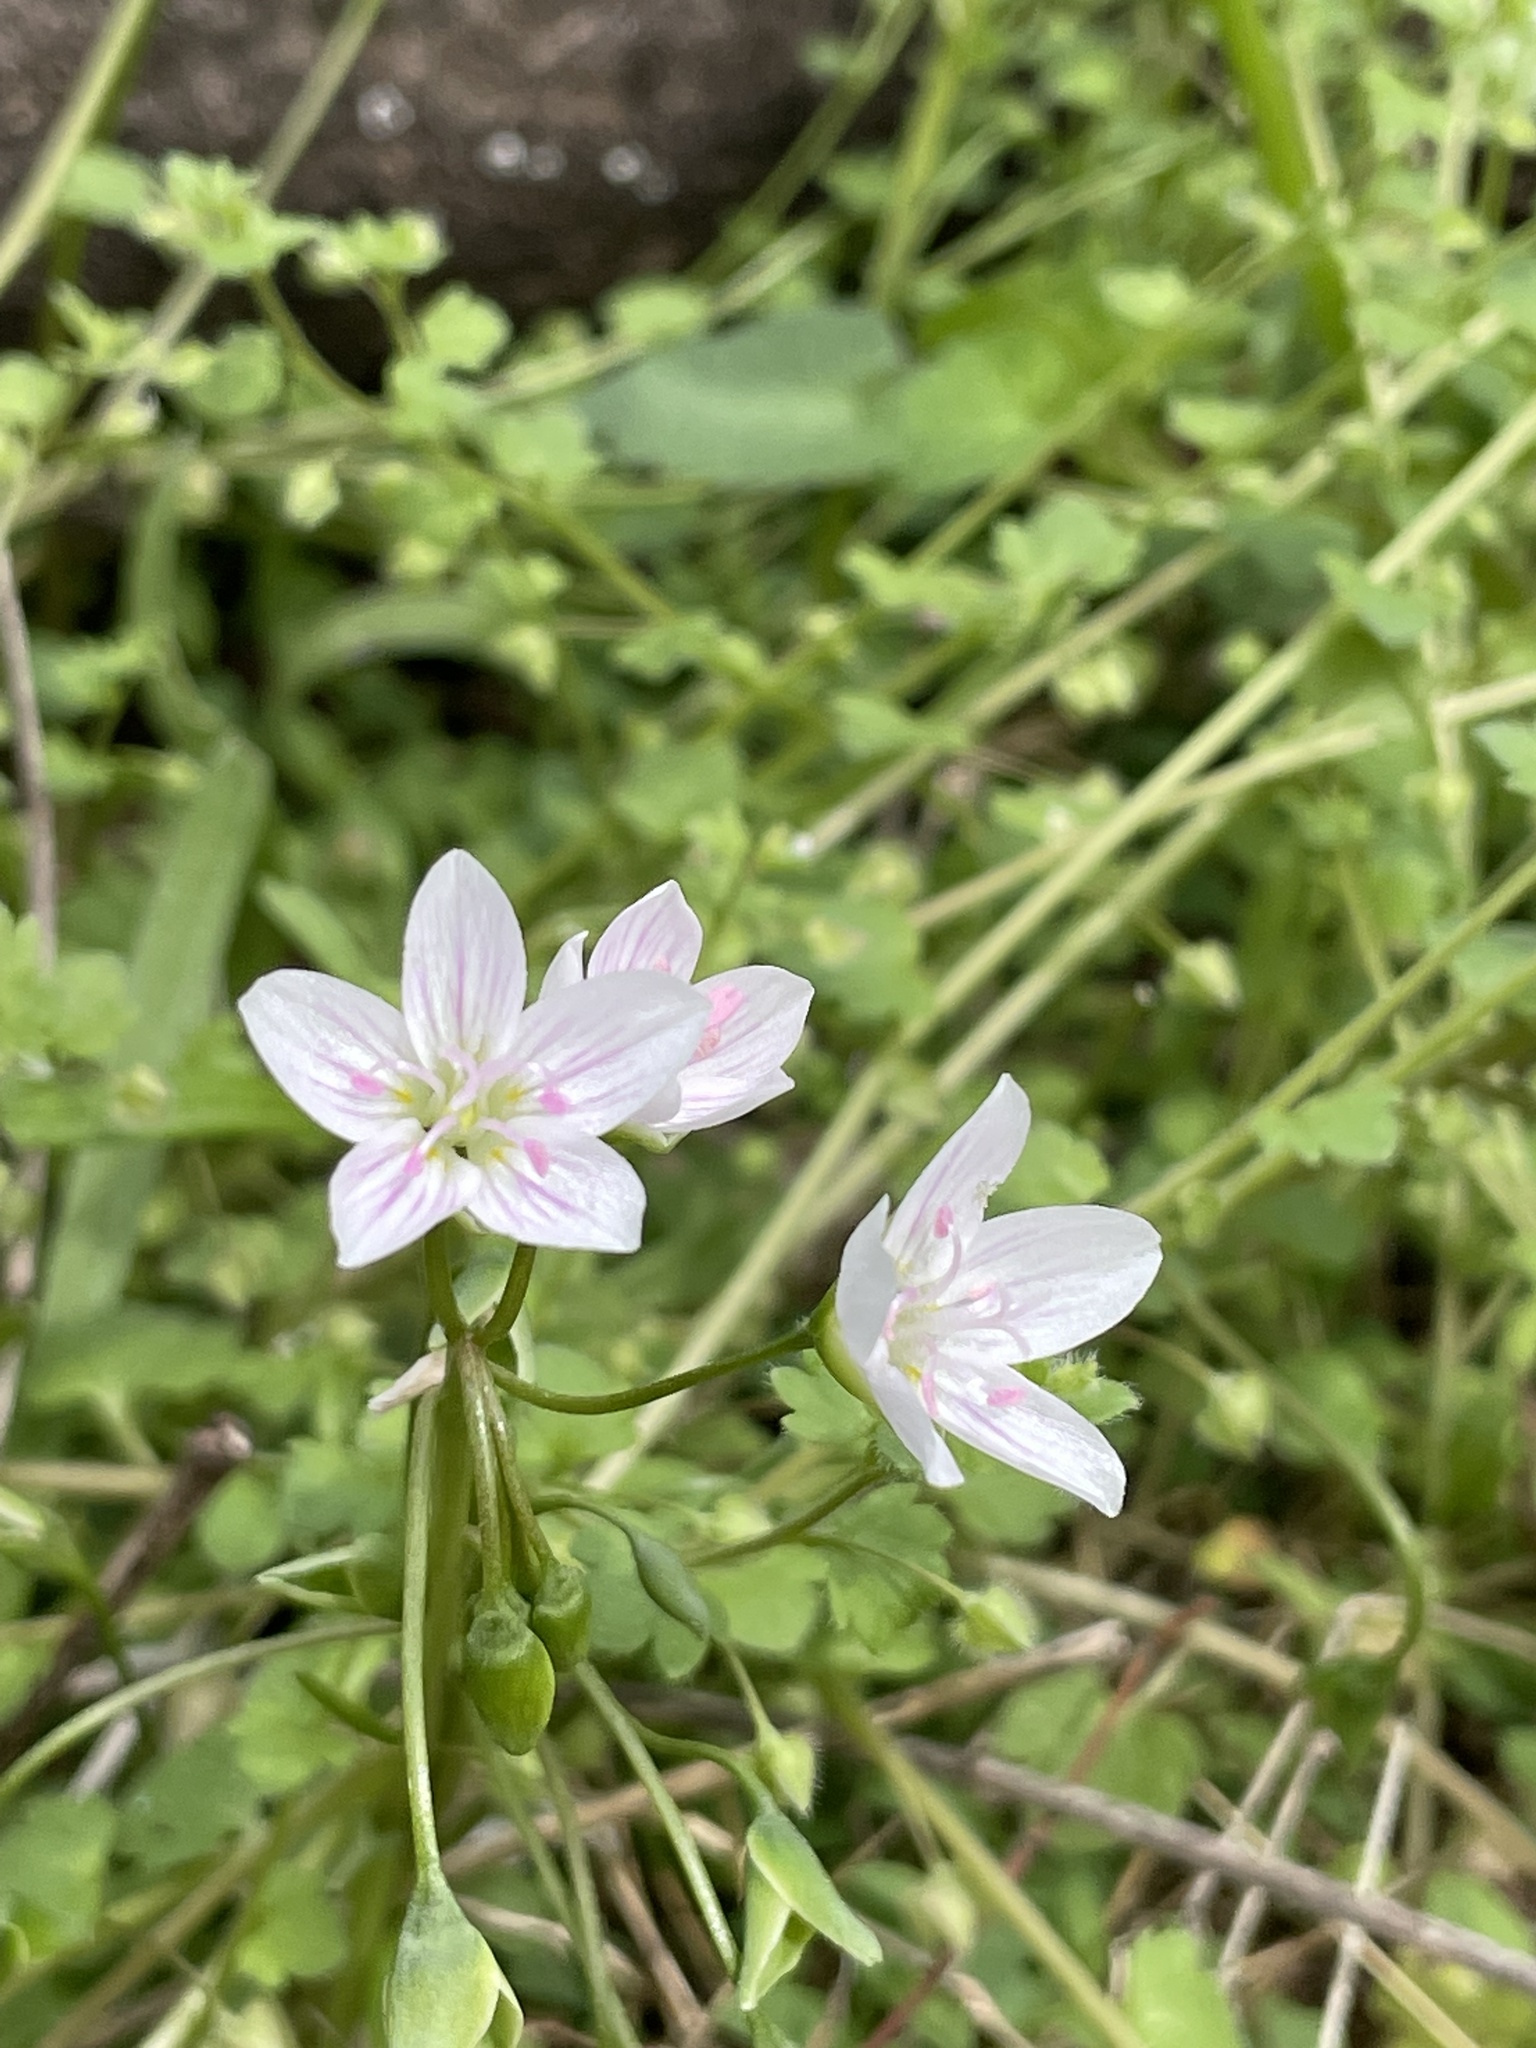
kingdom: Plantae
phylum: Tracheophyta
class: Magnoliopsida
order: Caryophyllales
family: Montiaceae
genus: Claytonia
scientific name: Claytonia virginica
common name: Virginia springbeauty
